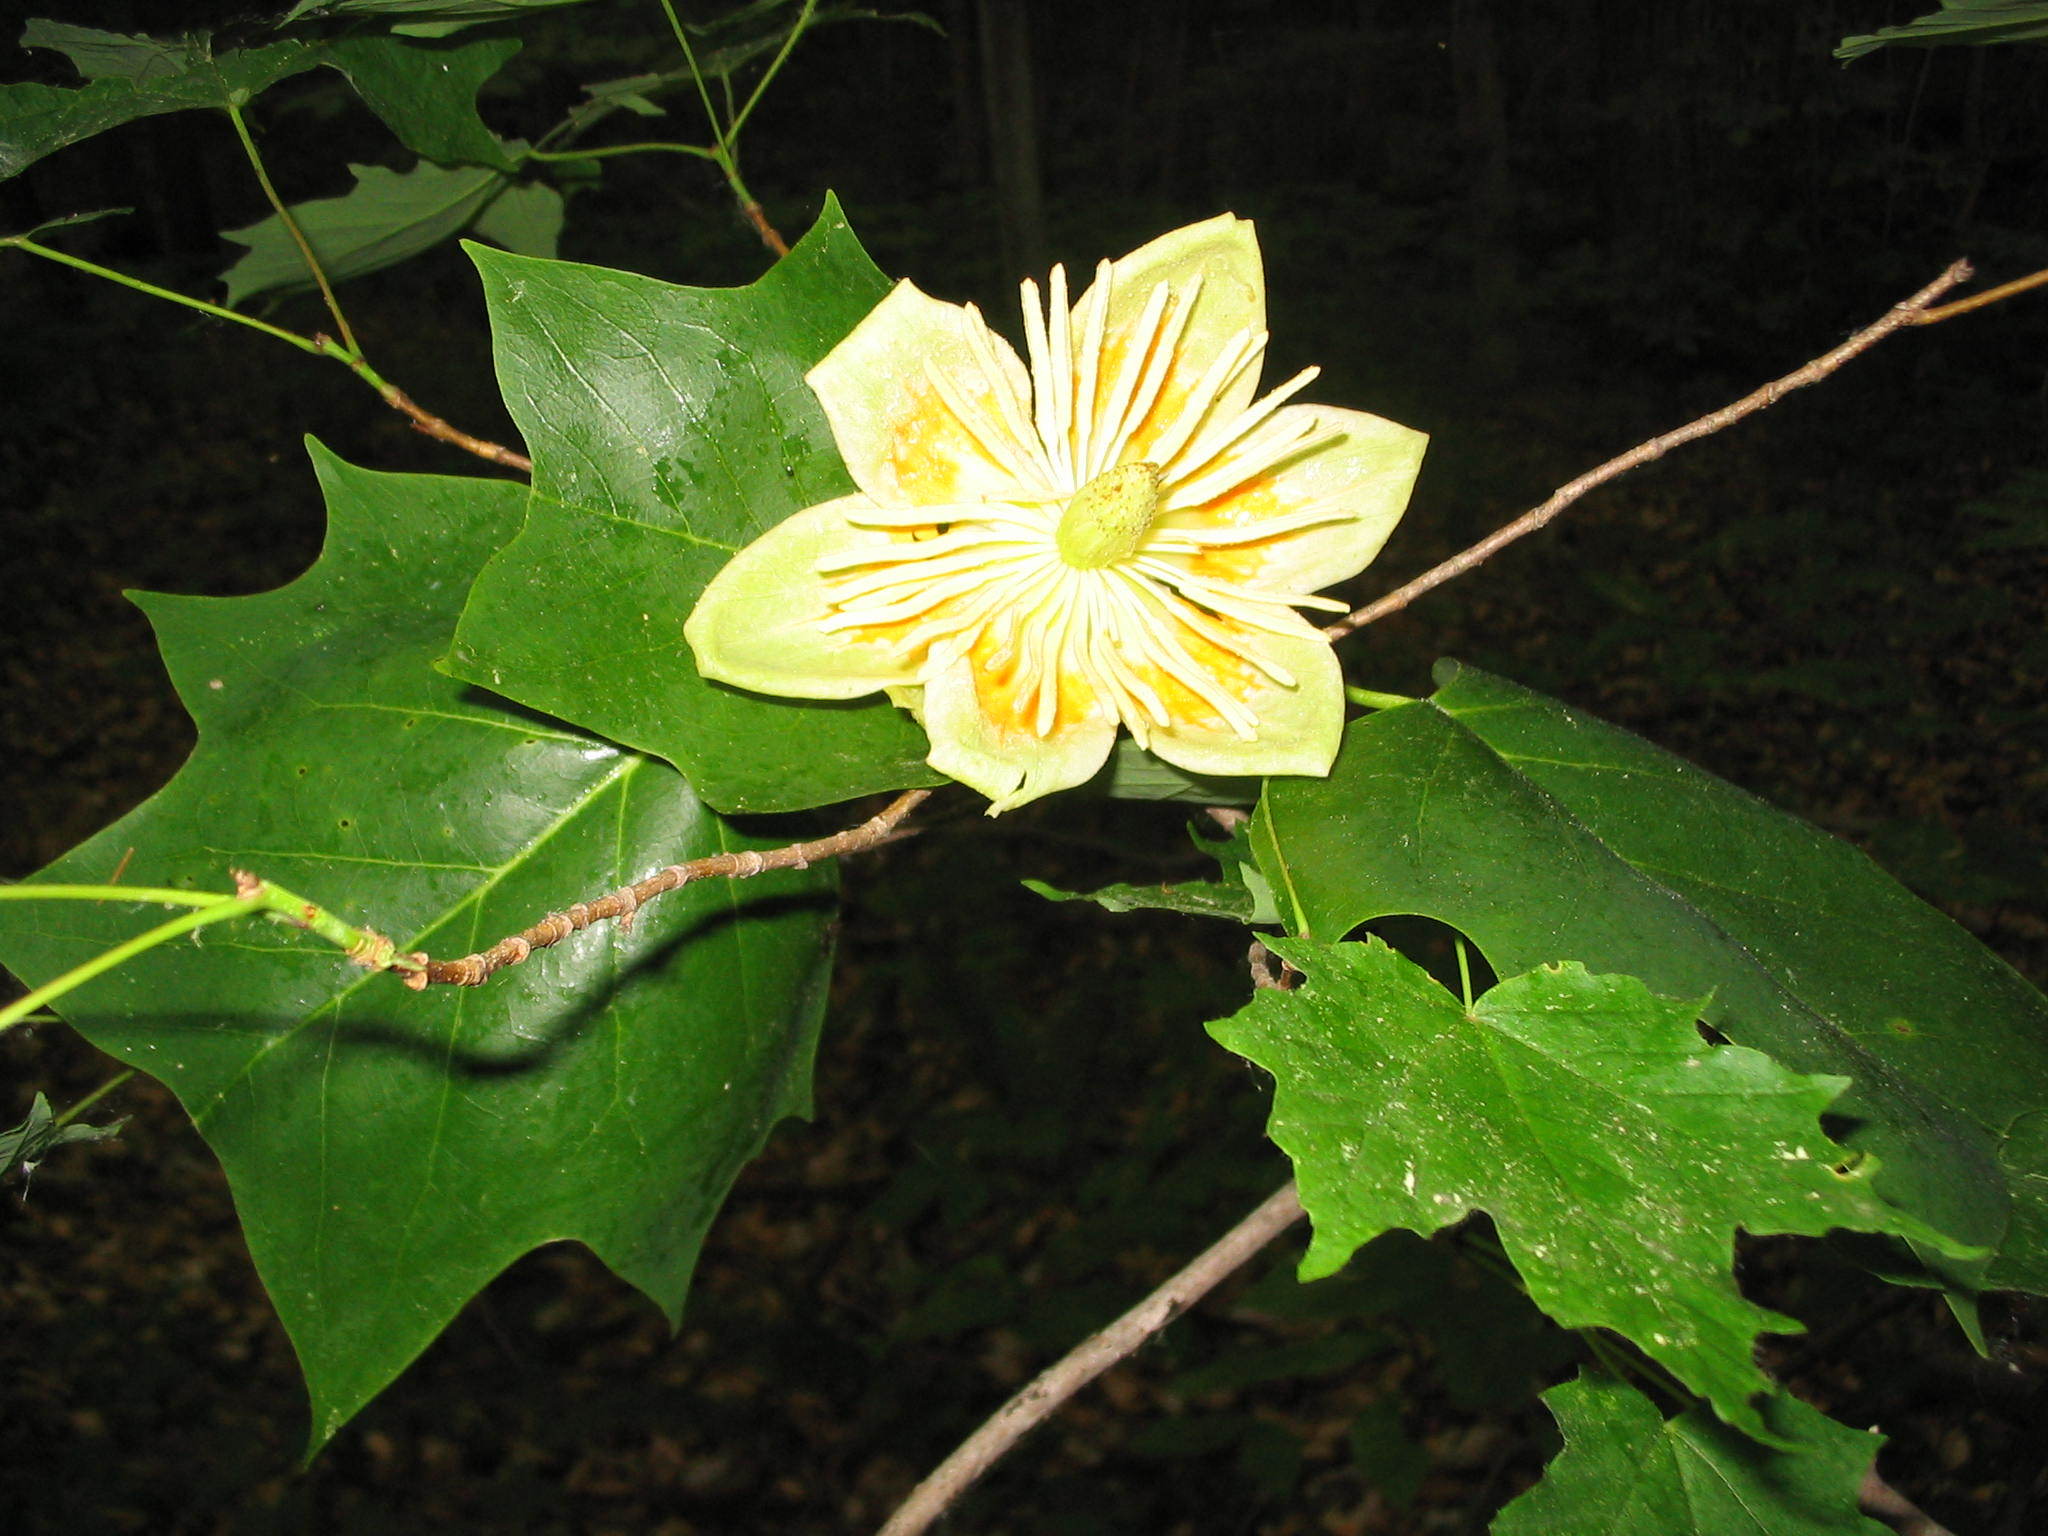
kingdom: Plantae
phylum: Tracheophyta
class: Magnoliopsida
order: Magnoliales
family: Magnoliaceae
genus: Liriodendron
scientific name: Liriodendron tulipifera
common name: Tulip tree
